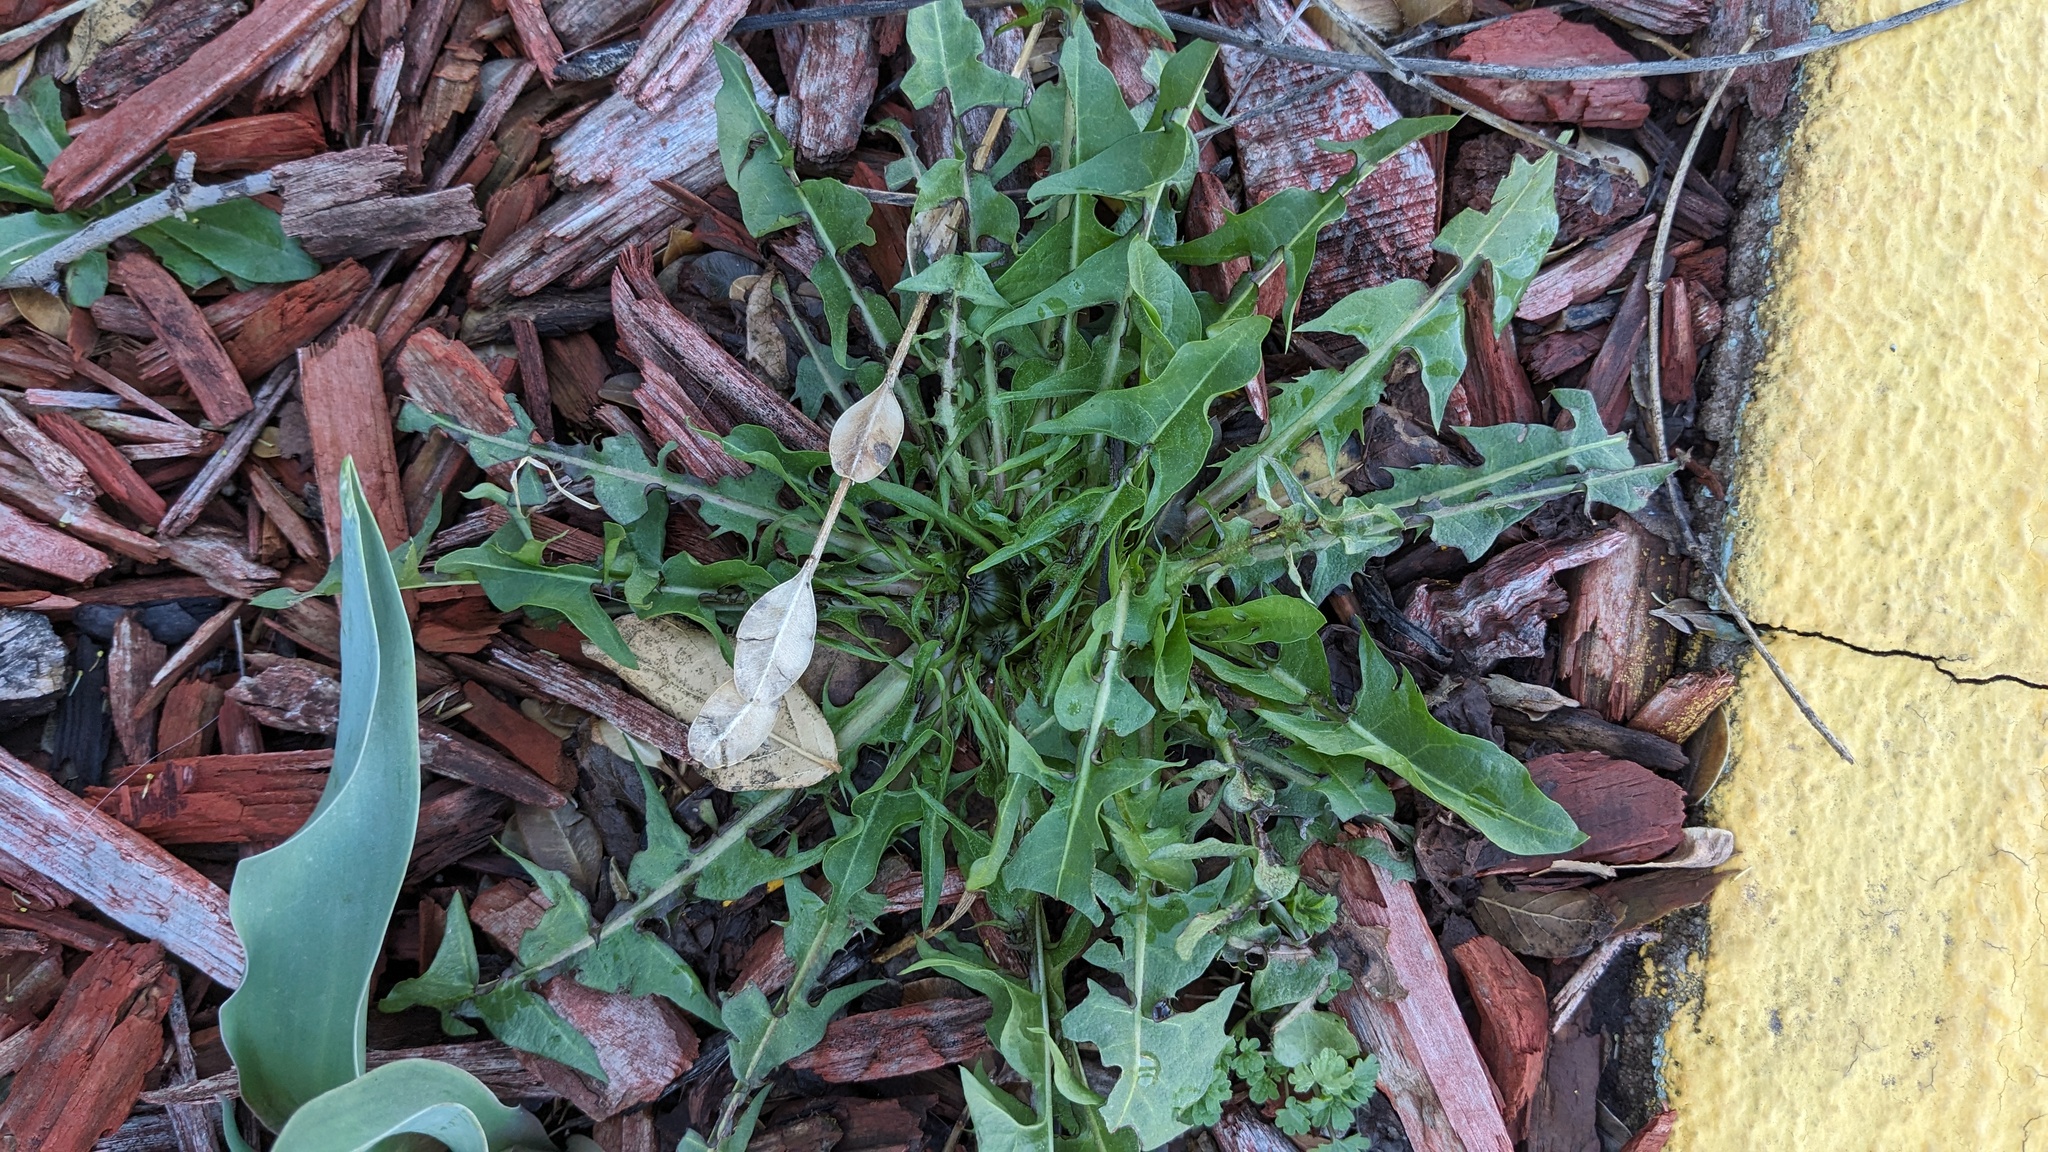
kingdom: Plantae
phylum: Tracheophyta
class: Magnoliopsida
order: Asterales
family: Asteraceae
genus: Taraxacum
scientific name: Taraxacum
